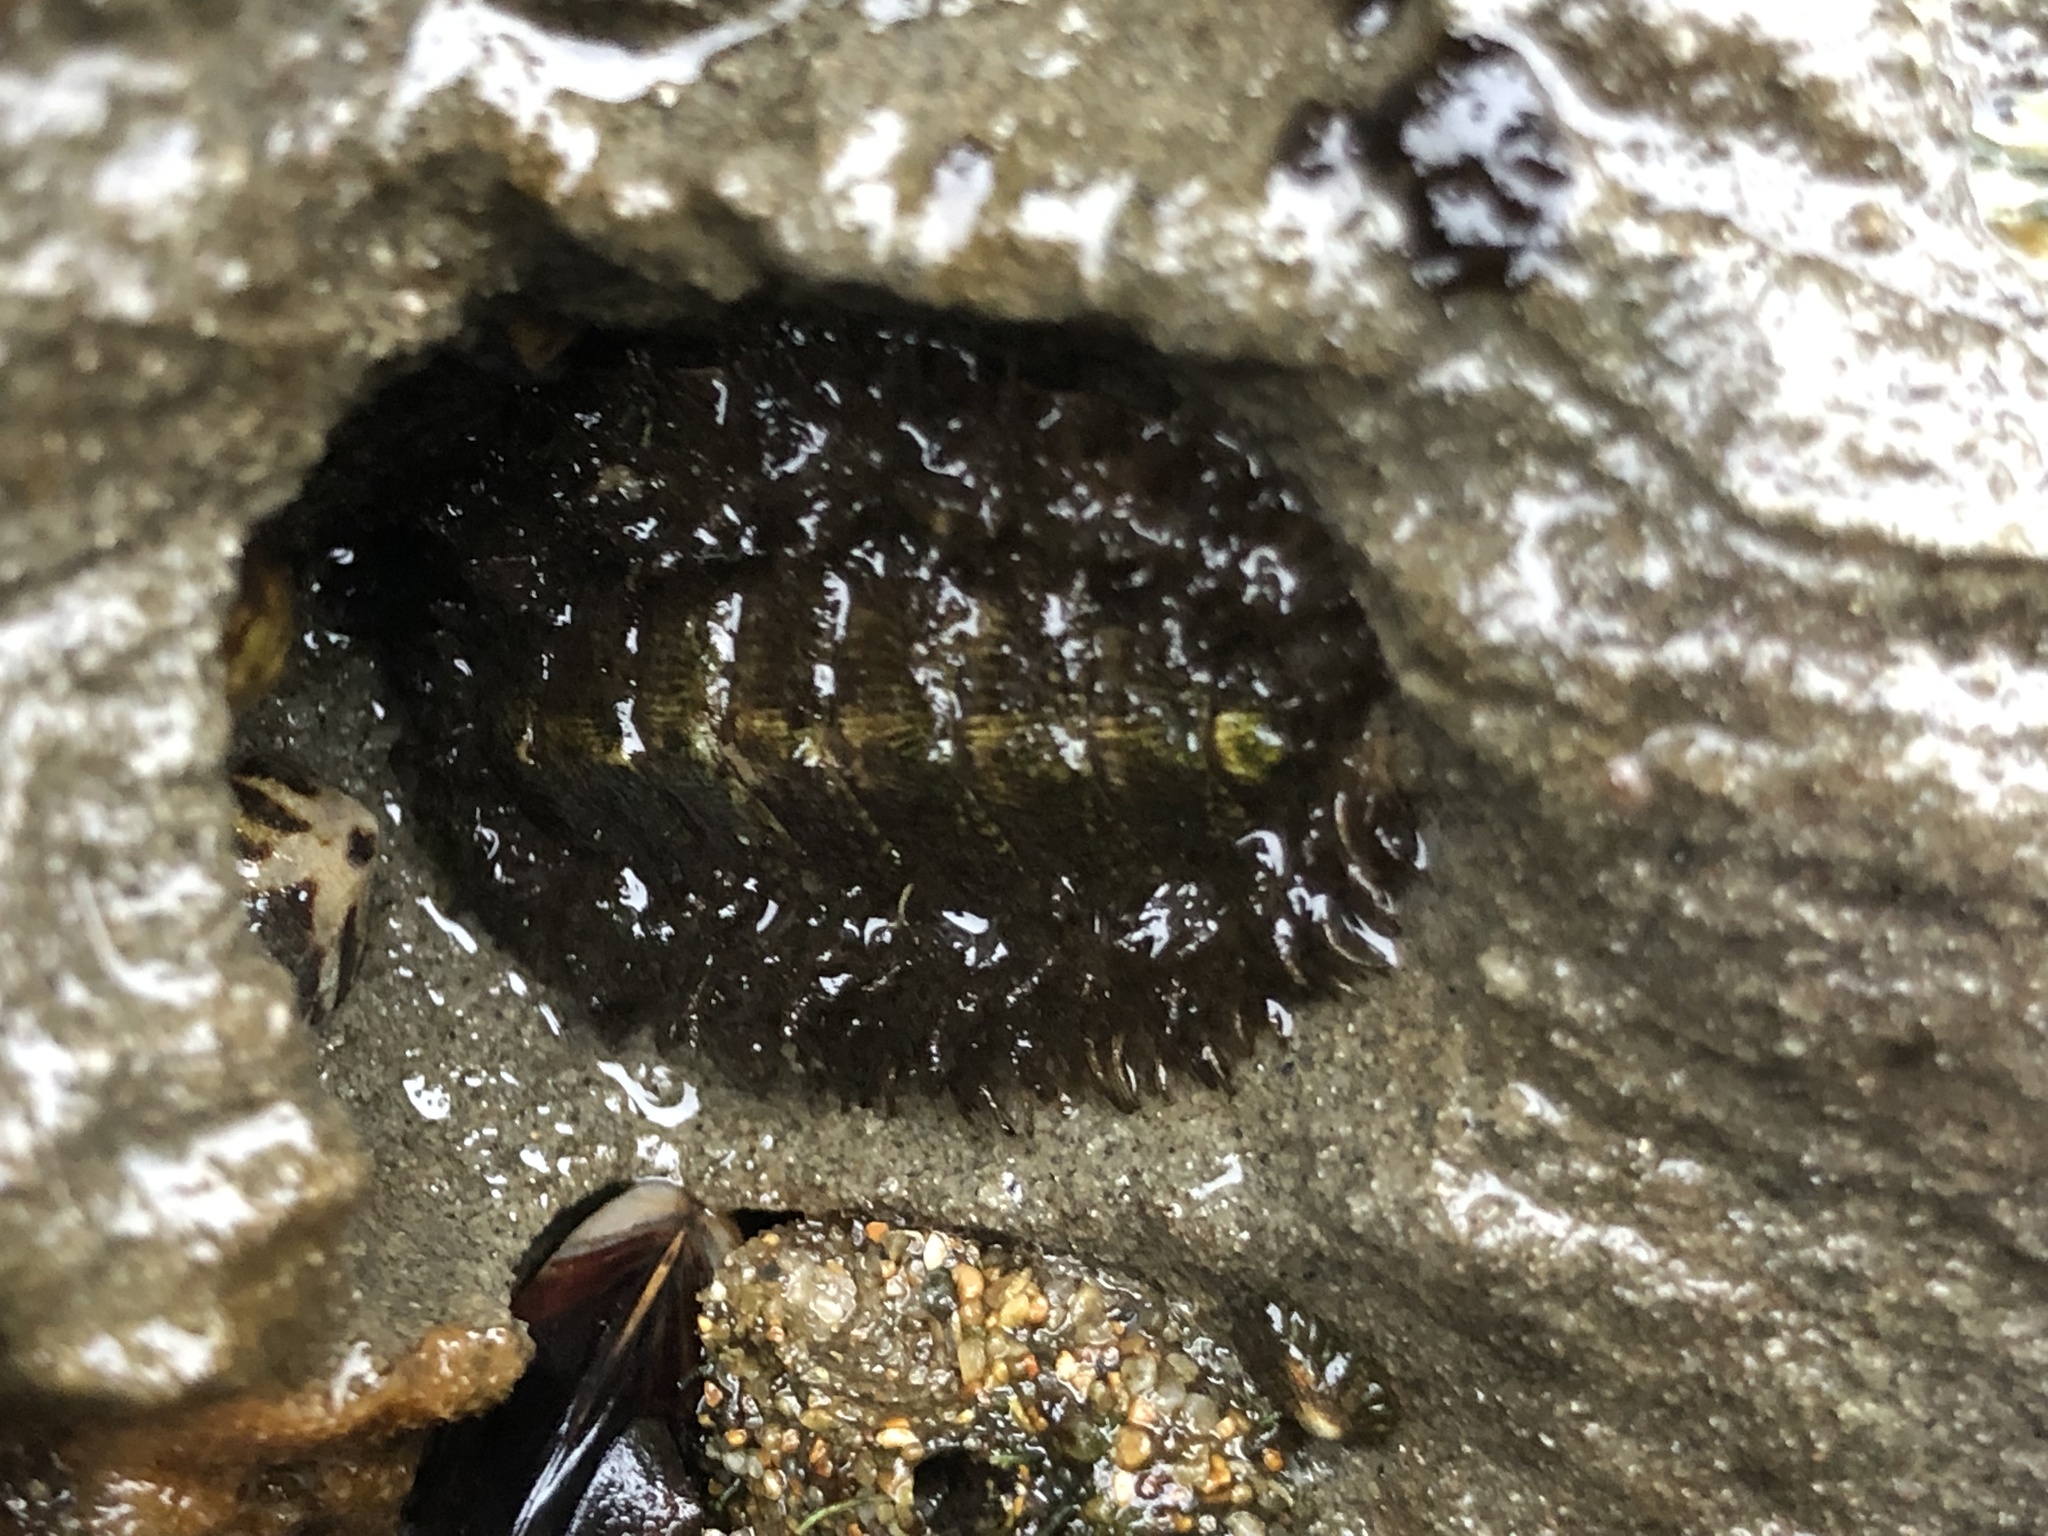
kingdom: Animalia
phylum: Mollusca
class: Polyplacophora
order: Chitonida
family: Mopaliidae
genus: Mopalia
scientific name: Mopalia muscosa
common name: Mossy chiton
